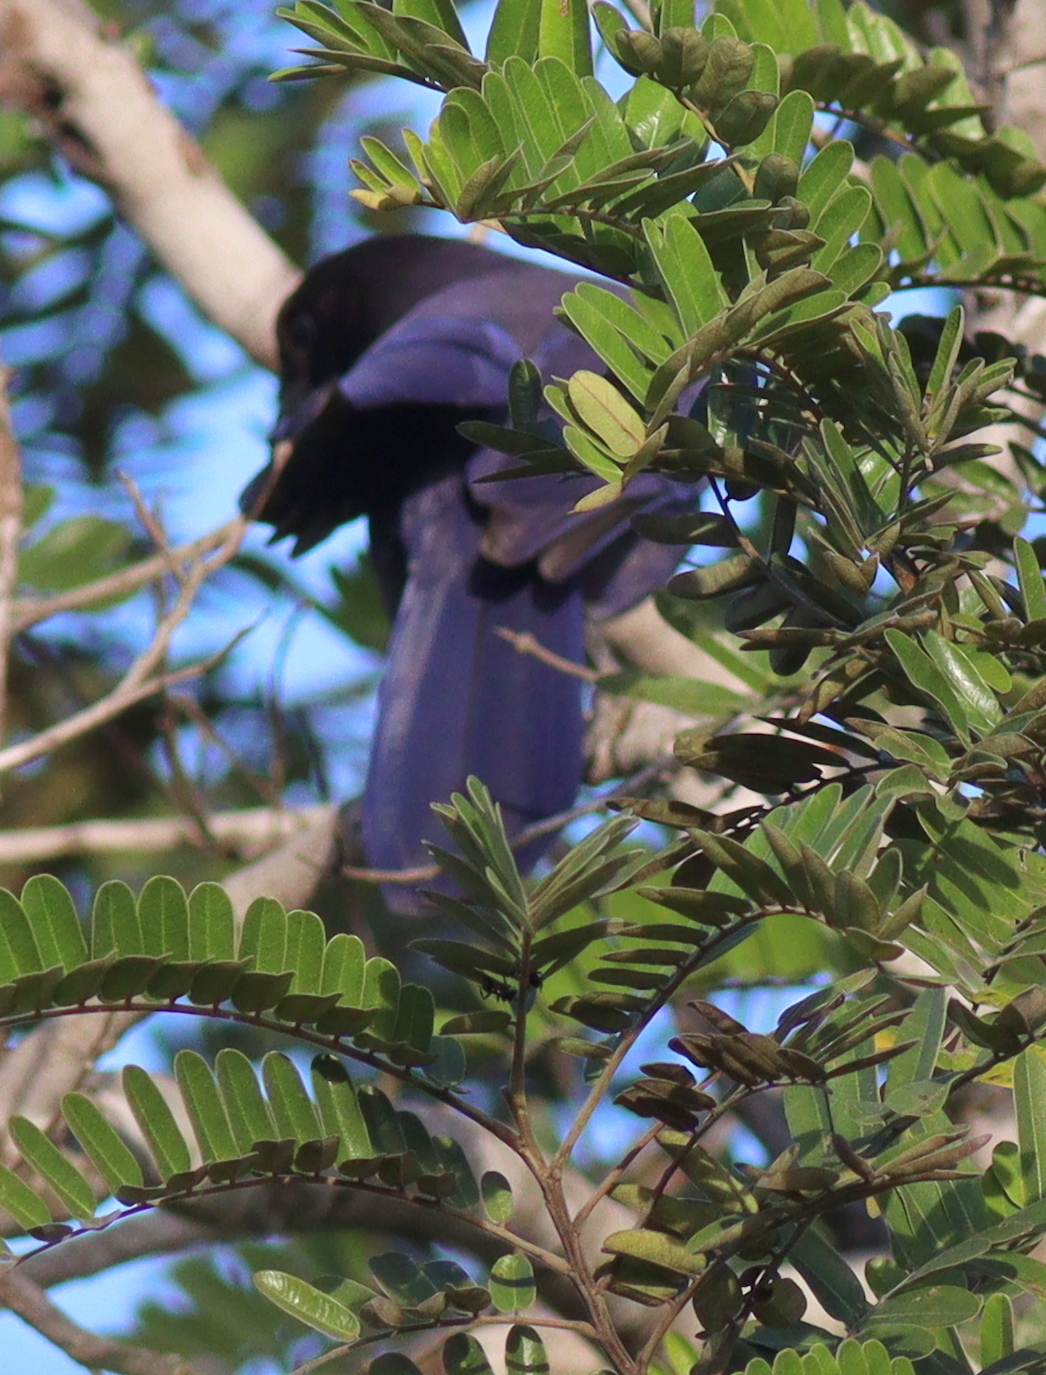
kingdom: Animalia
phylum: Chordata
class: Aves
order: Passeriformes
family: Corvidae
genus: Cyanocorax
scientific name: Cyanocorax cyanomelas
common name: Purplish jay
